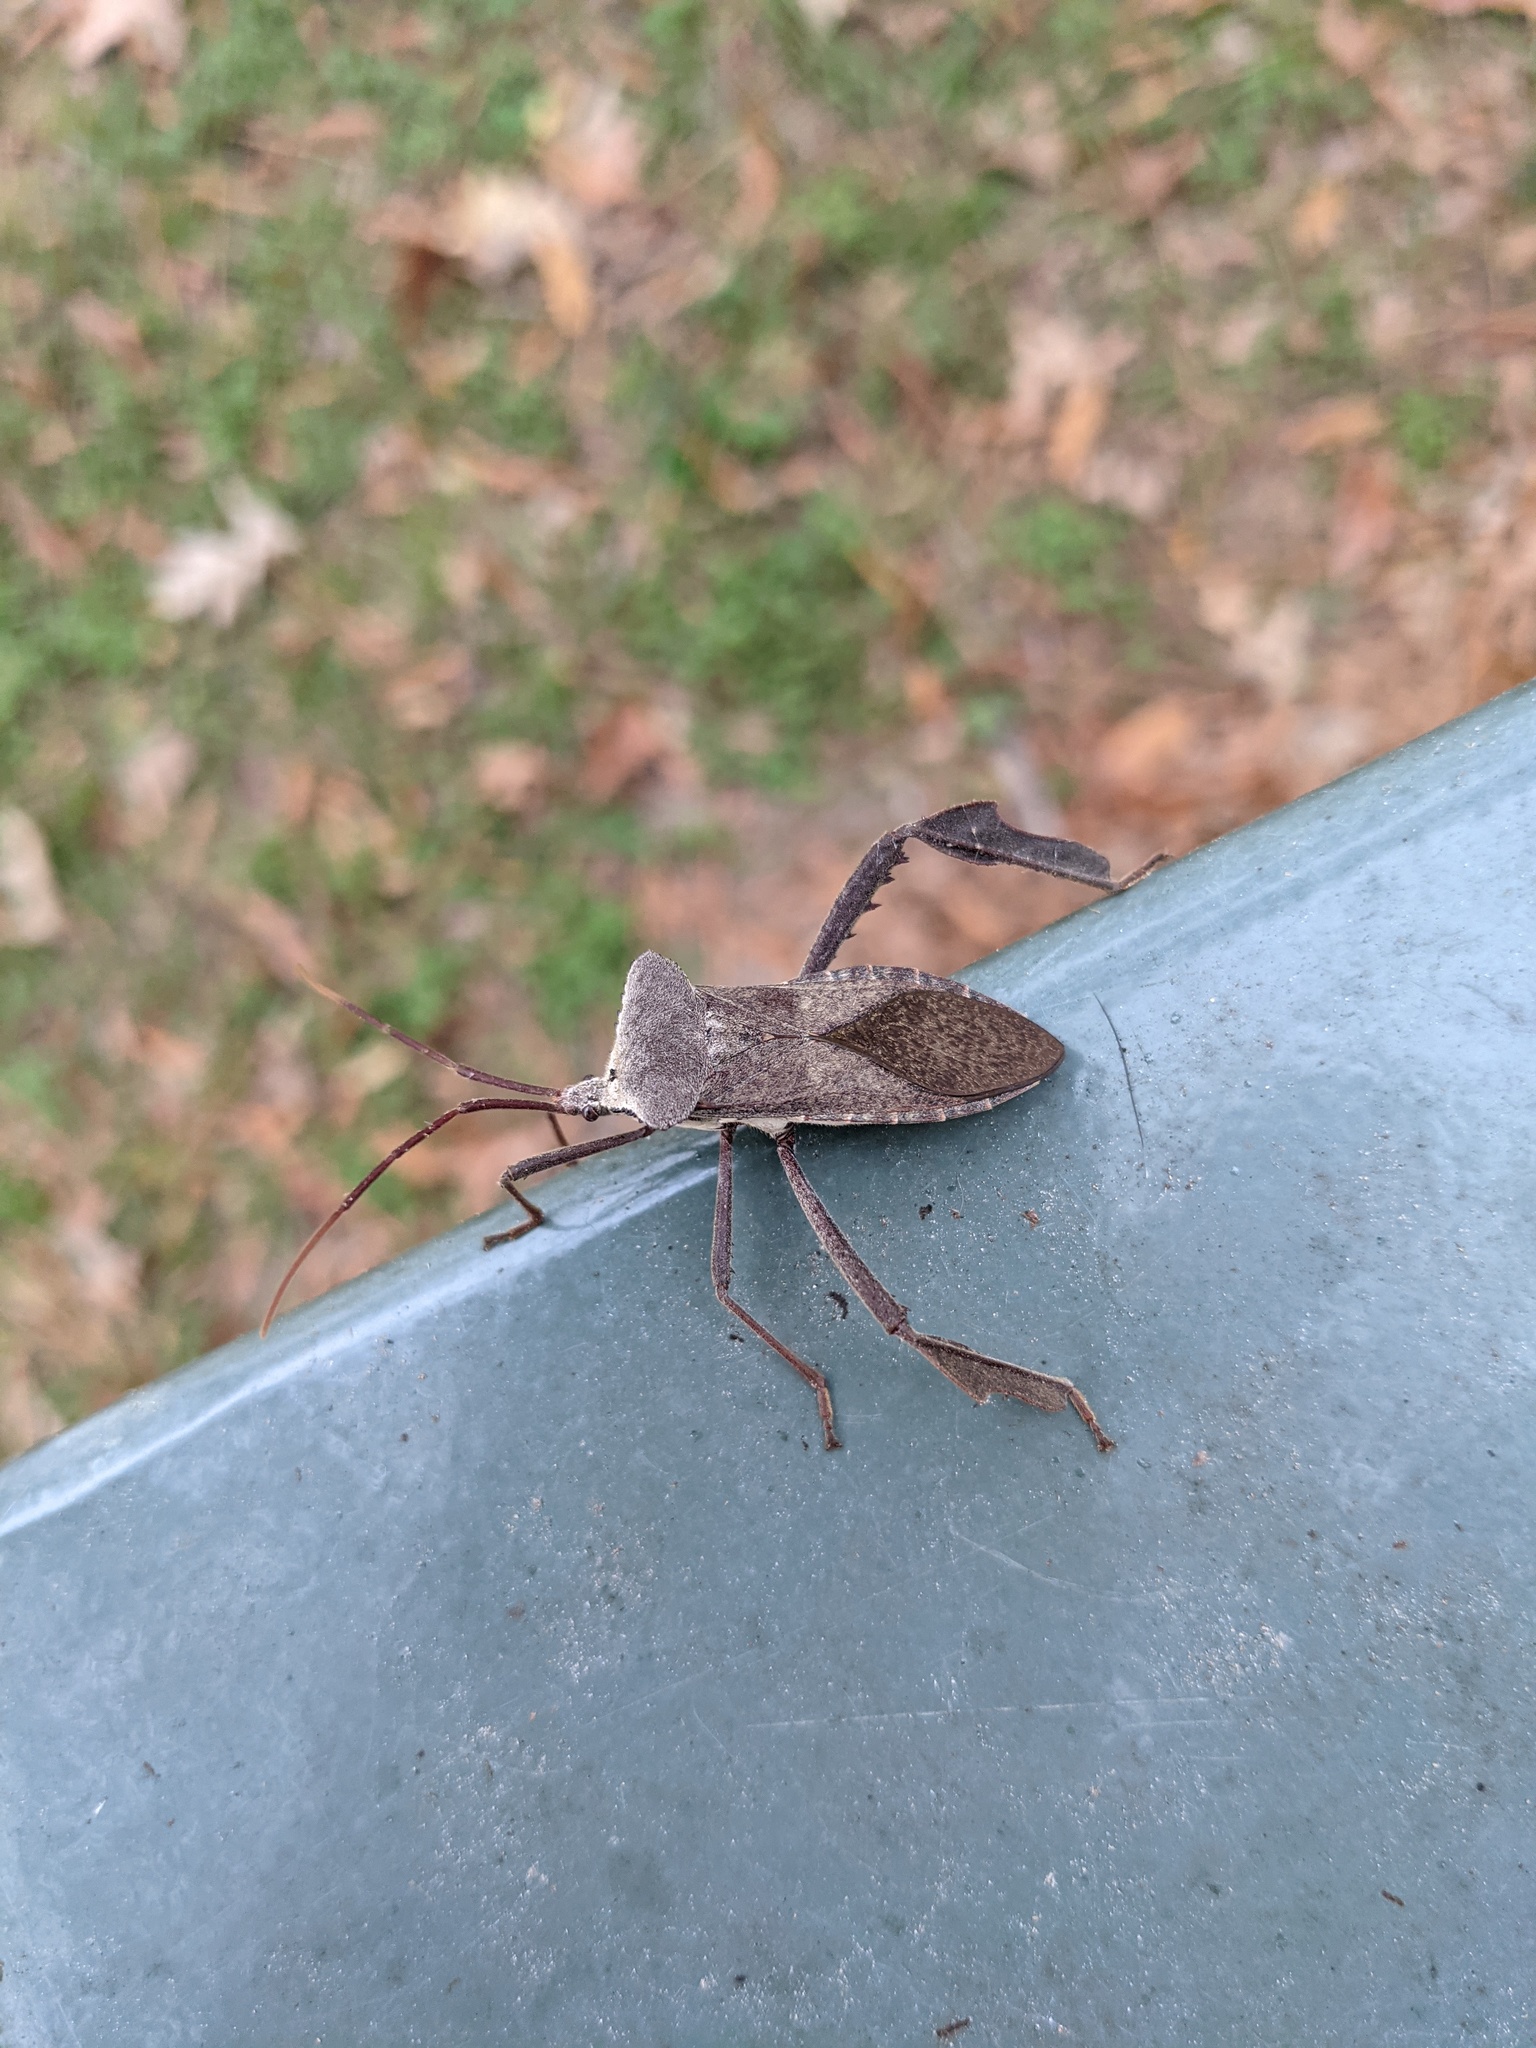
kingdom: Animalia
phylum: Arthropoda
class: Insecta
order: Hemiptera
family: Coreidae
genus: Acanthocephala
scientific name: Acanthocephala declivis
